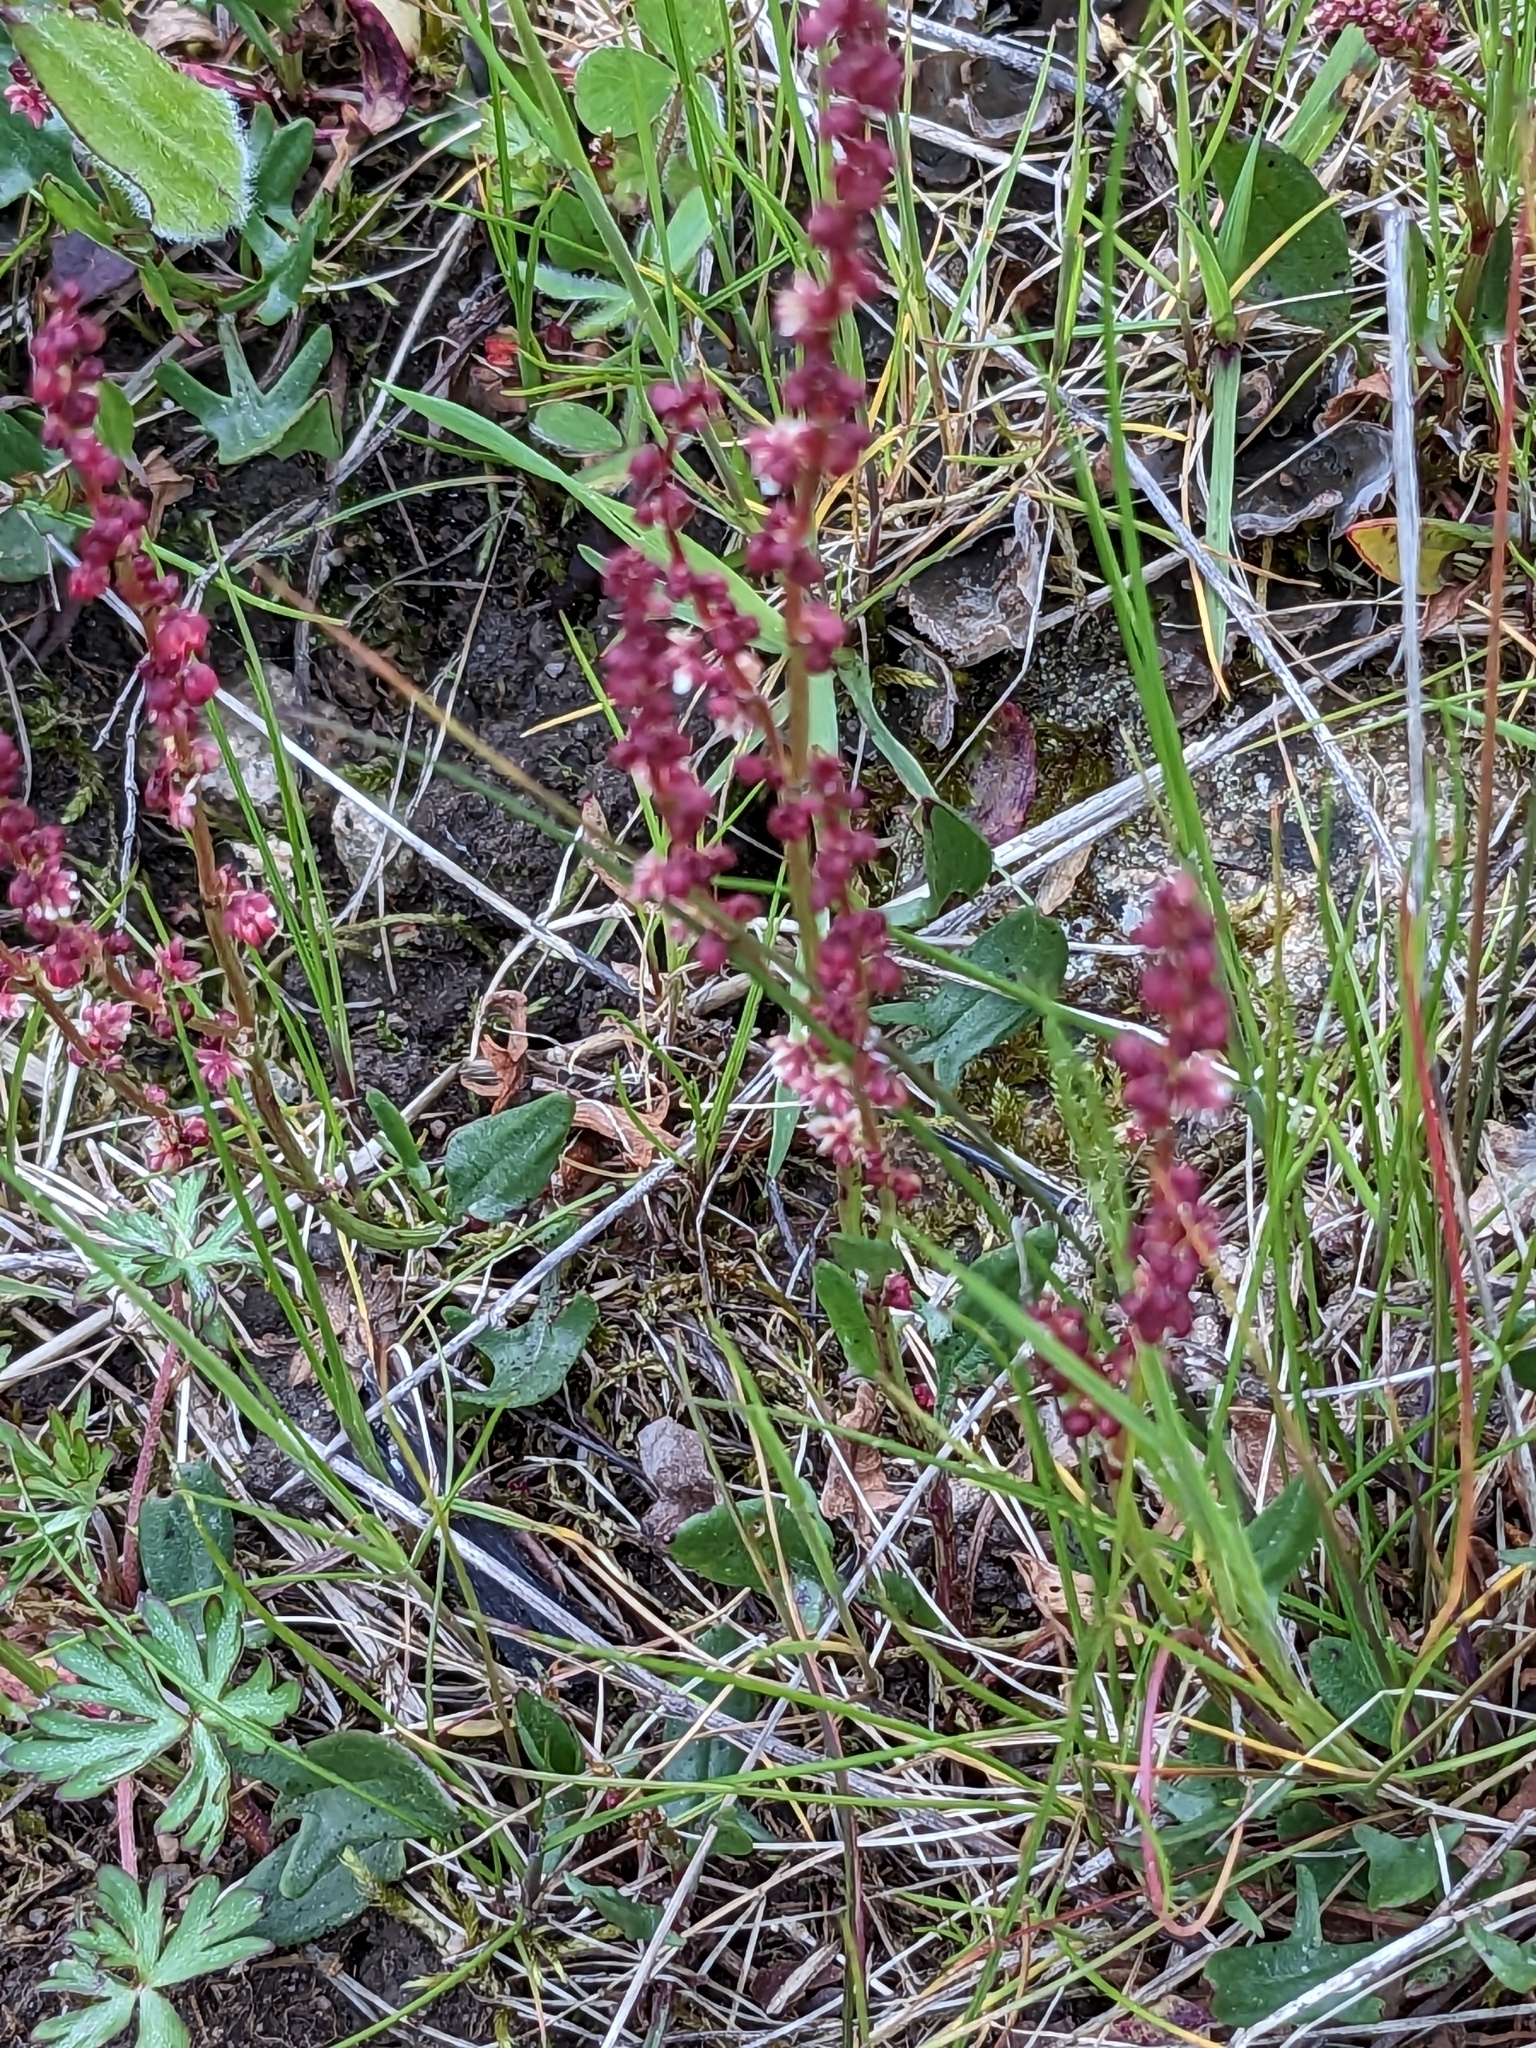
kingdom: Plantae
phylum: Tracheophyta
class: Magnoliopsida
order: Caryophyllales
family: Polygonaceae
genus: Rumex
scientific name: Rumex acetosella
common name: Common sheep sorrel
